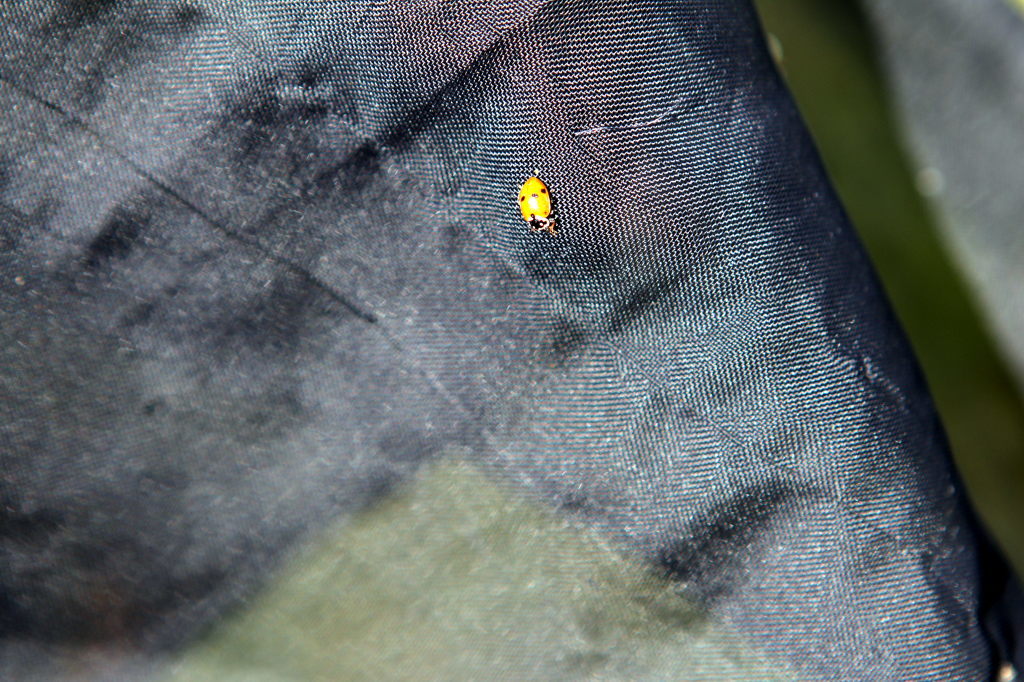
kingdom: Animalia
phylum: Arthropoda
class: Insecta
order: Coleoptera
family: Coccinellidae
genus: Hippodamia
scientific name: Hippodamia variegata
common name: Ladybird beetle
